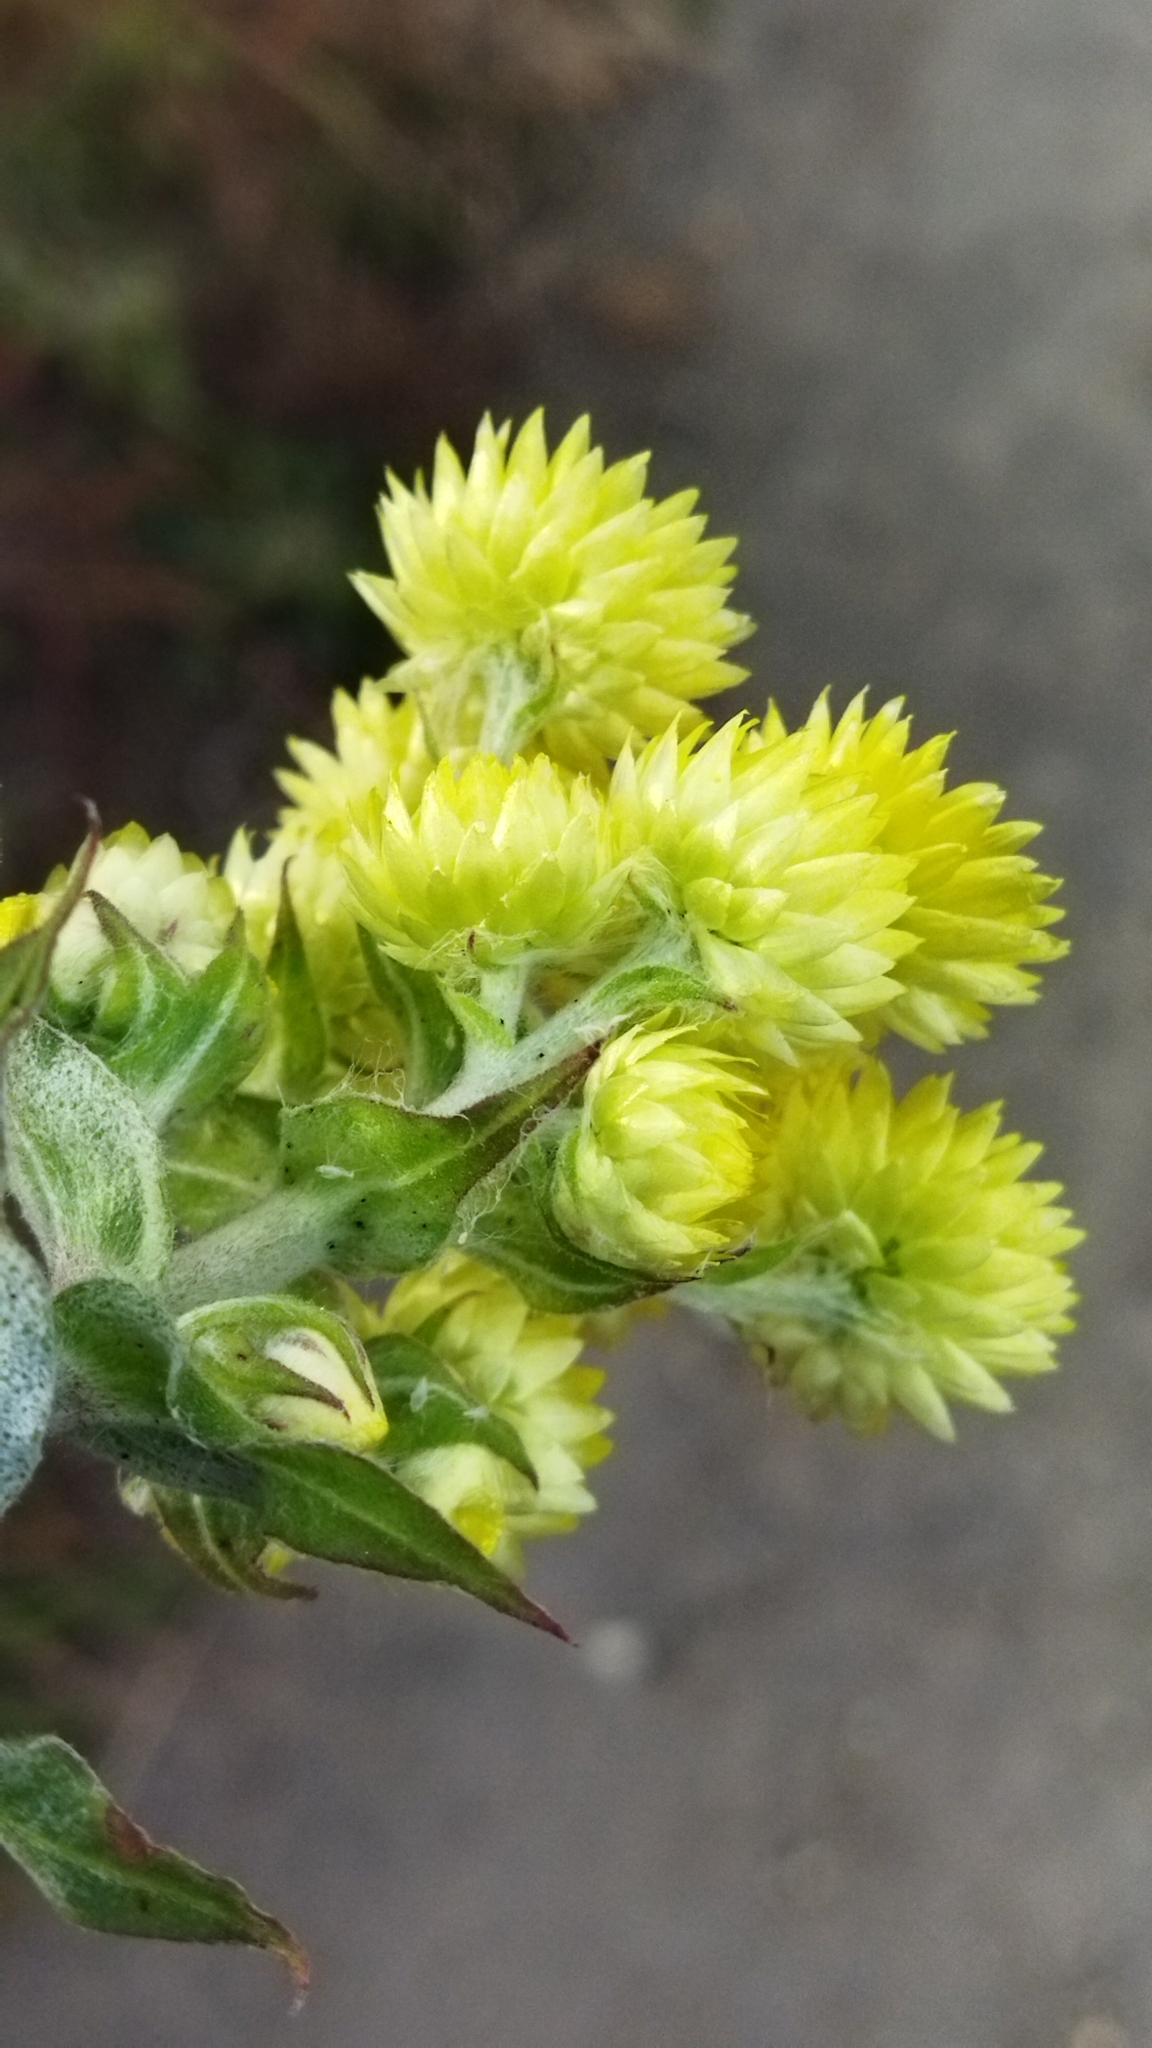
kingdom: Plantae
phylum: Tracheophyta
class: Magnoliopsida
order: Asterales
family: Asteraceae
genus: Helichrysum
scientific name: Helichrysum foetidum
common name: Stinking everlasting
